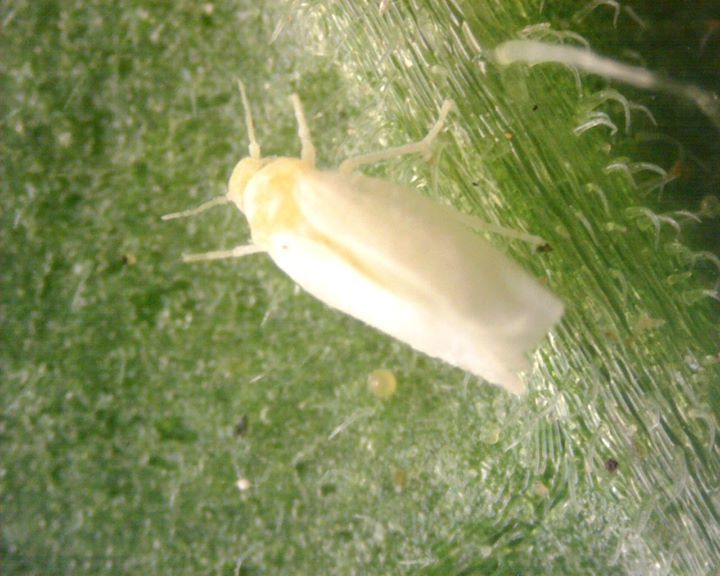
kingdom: Animalia
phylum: Arthropoda
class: Insecta
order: Hemiptera
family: Aleyrodidae
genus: Bemisia
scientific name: Bemisia tabaci
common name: Sweetpotato whitefly
